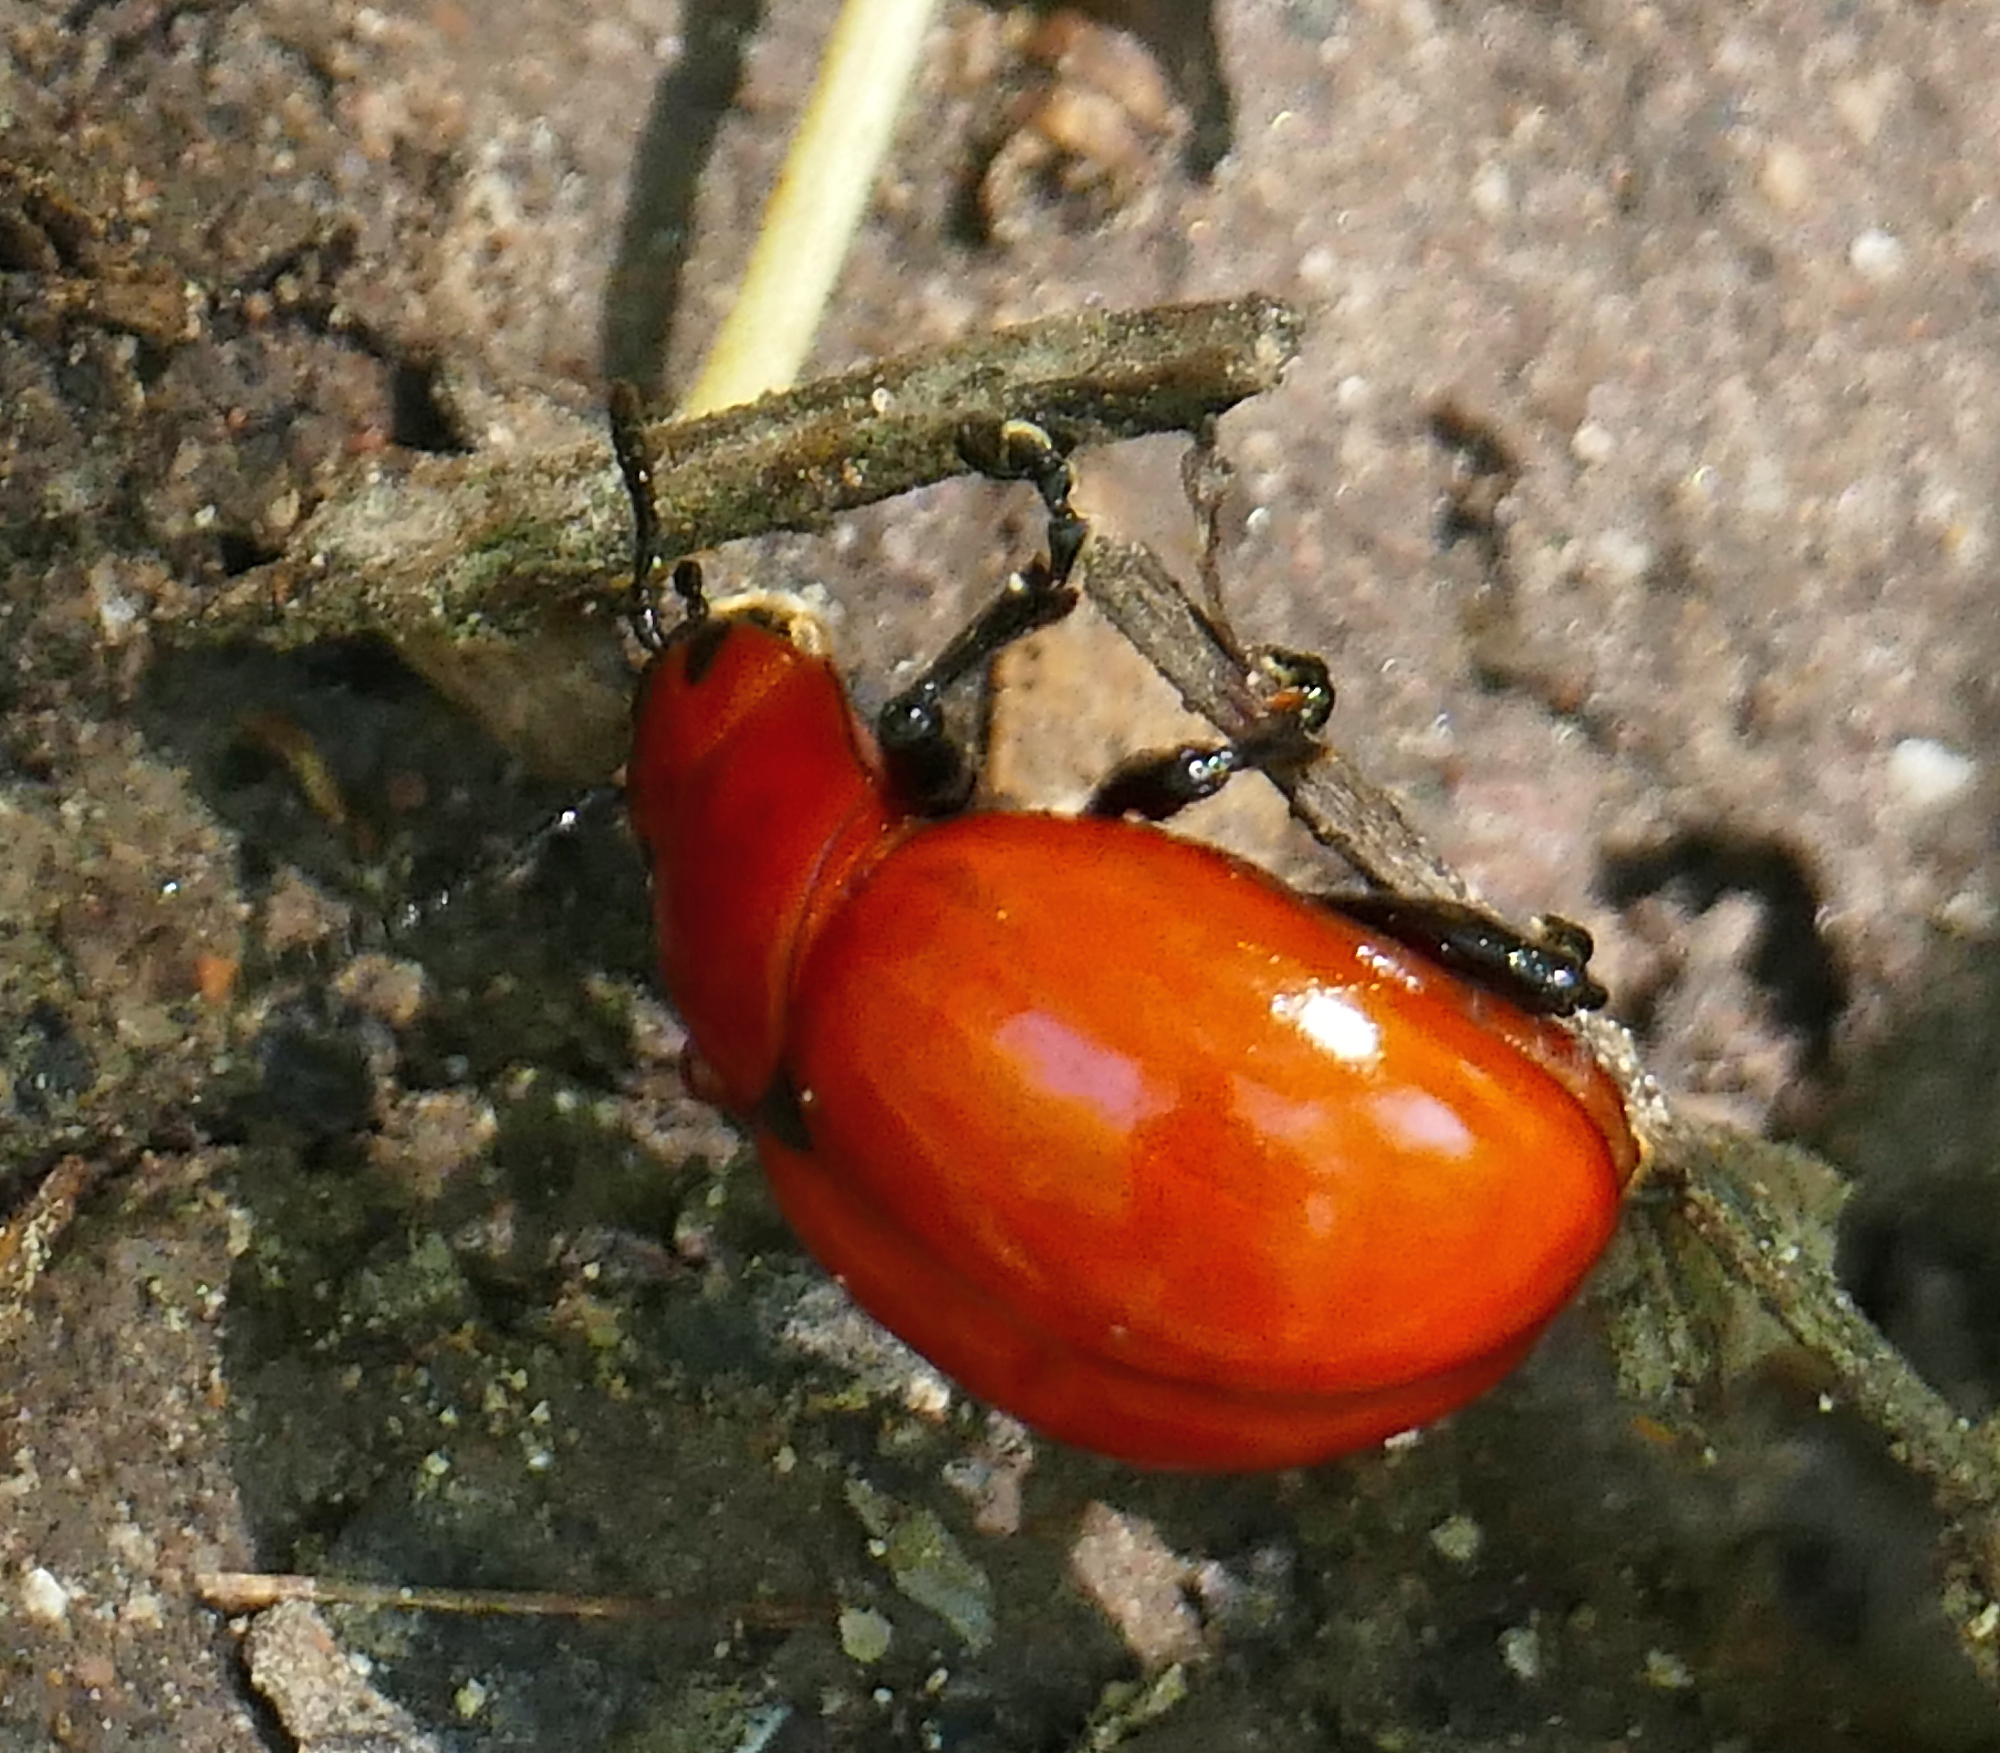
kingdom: Animalia
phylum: Arthropoda
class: Insecta
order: Coleoptera
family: Chrysomelidae
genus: Leptinotarsa
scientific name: Leptinotarsa rubiginosa
